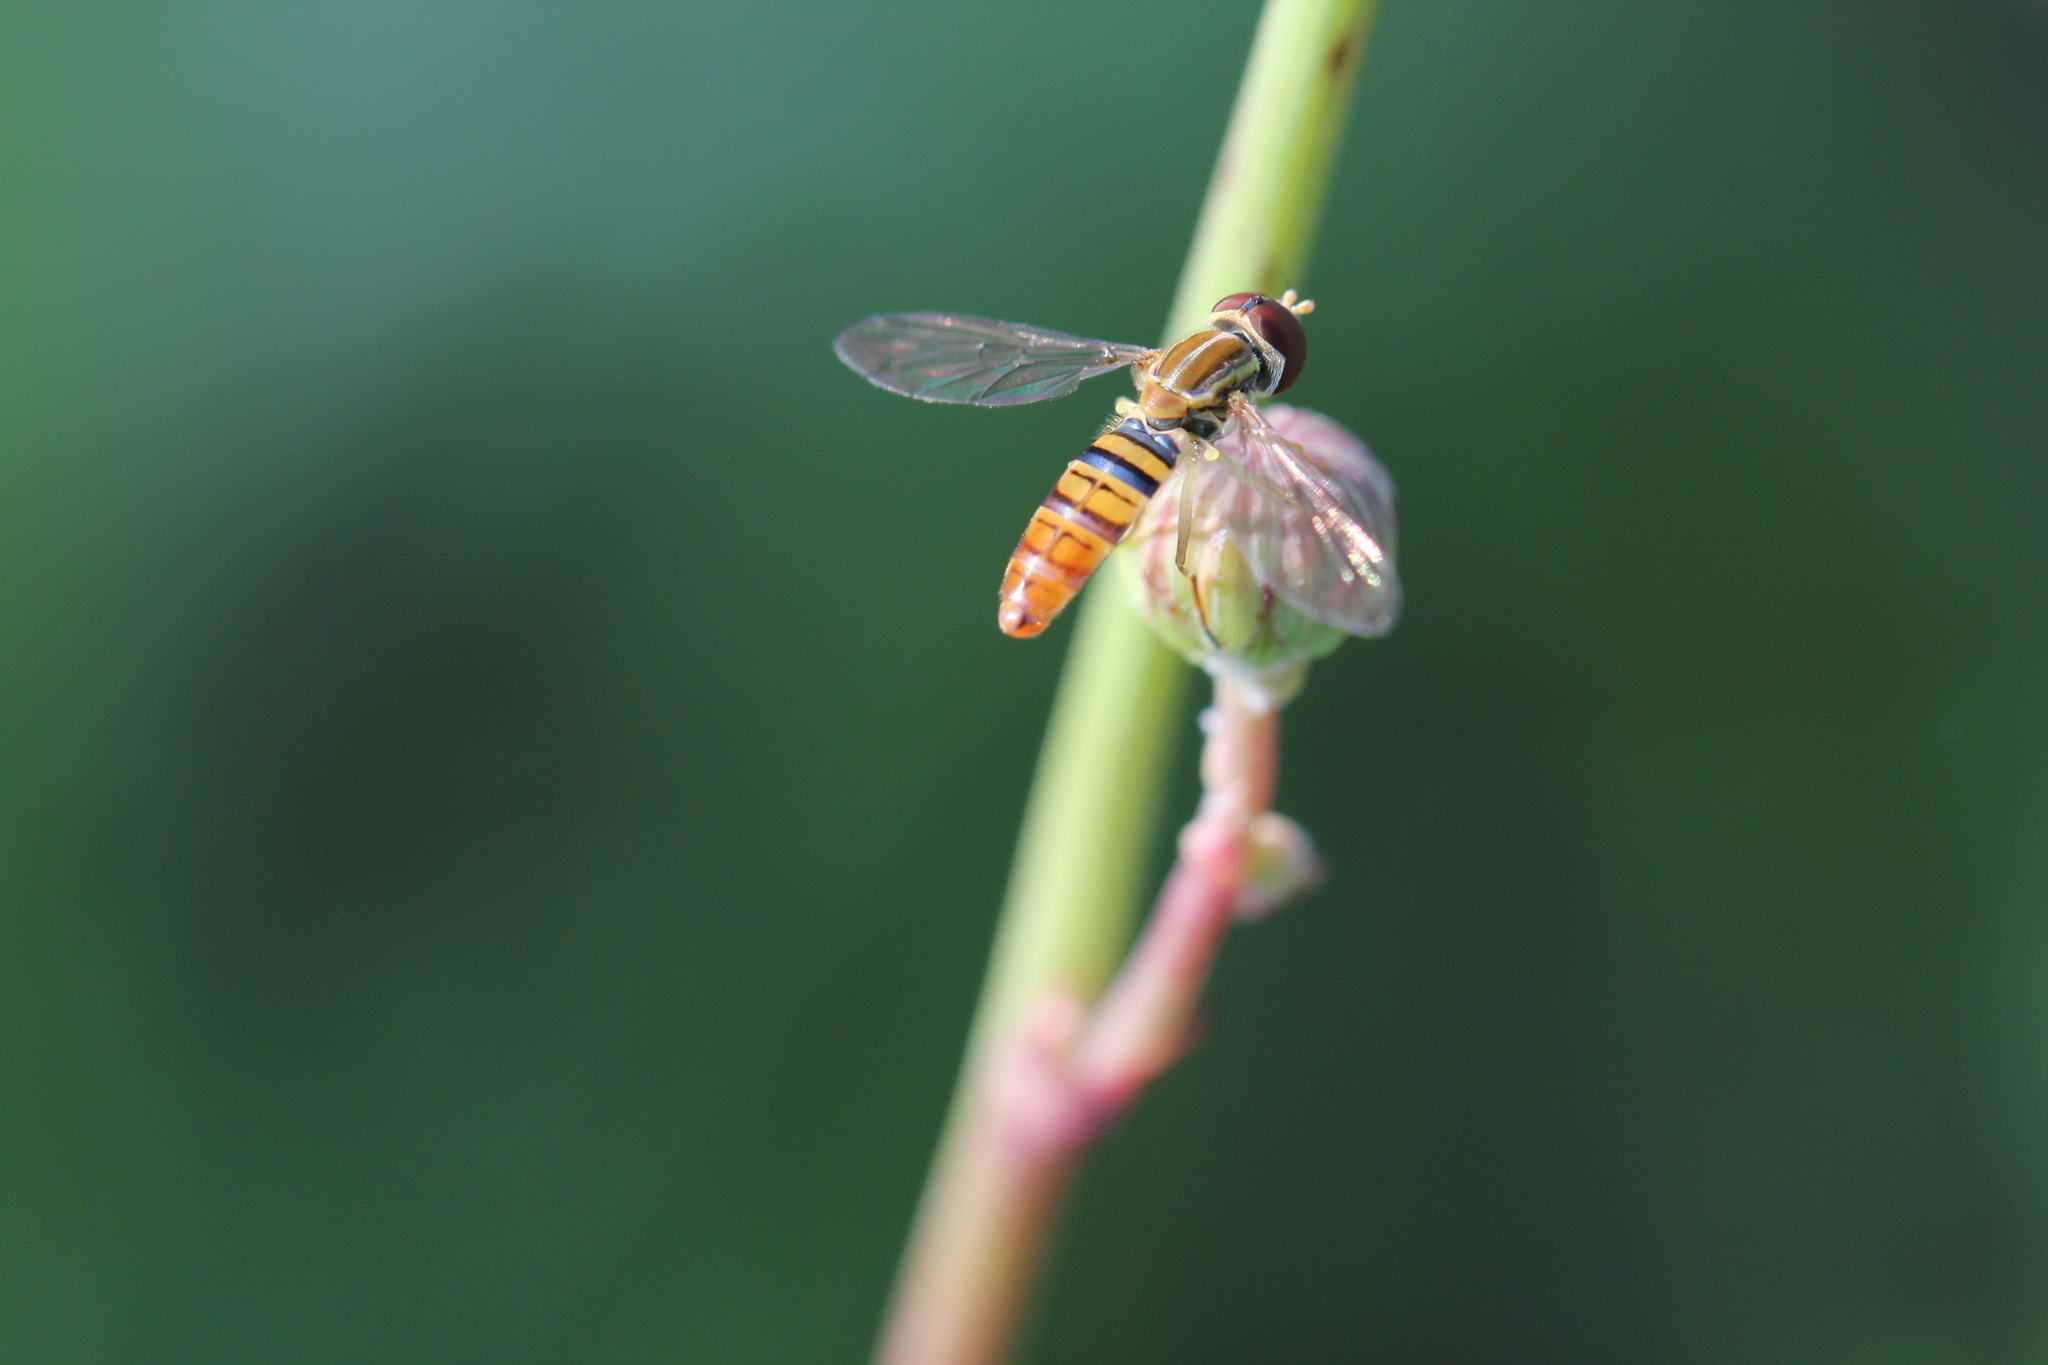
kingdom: Animalia
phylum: Arthropoda
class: Insecta
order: Diptera
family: Syrphidae
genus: Toxomerus
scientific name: Toxomerus politus
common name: Maize calligrapher
